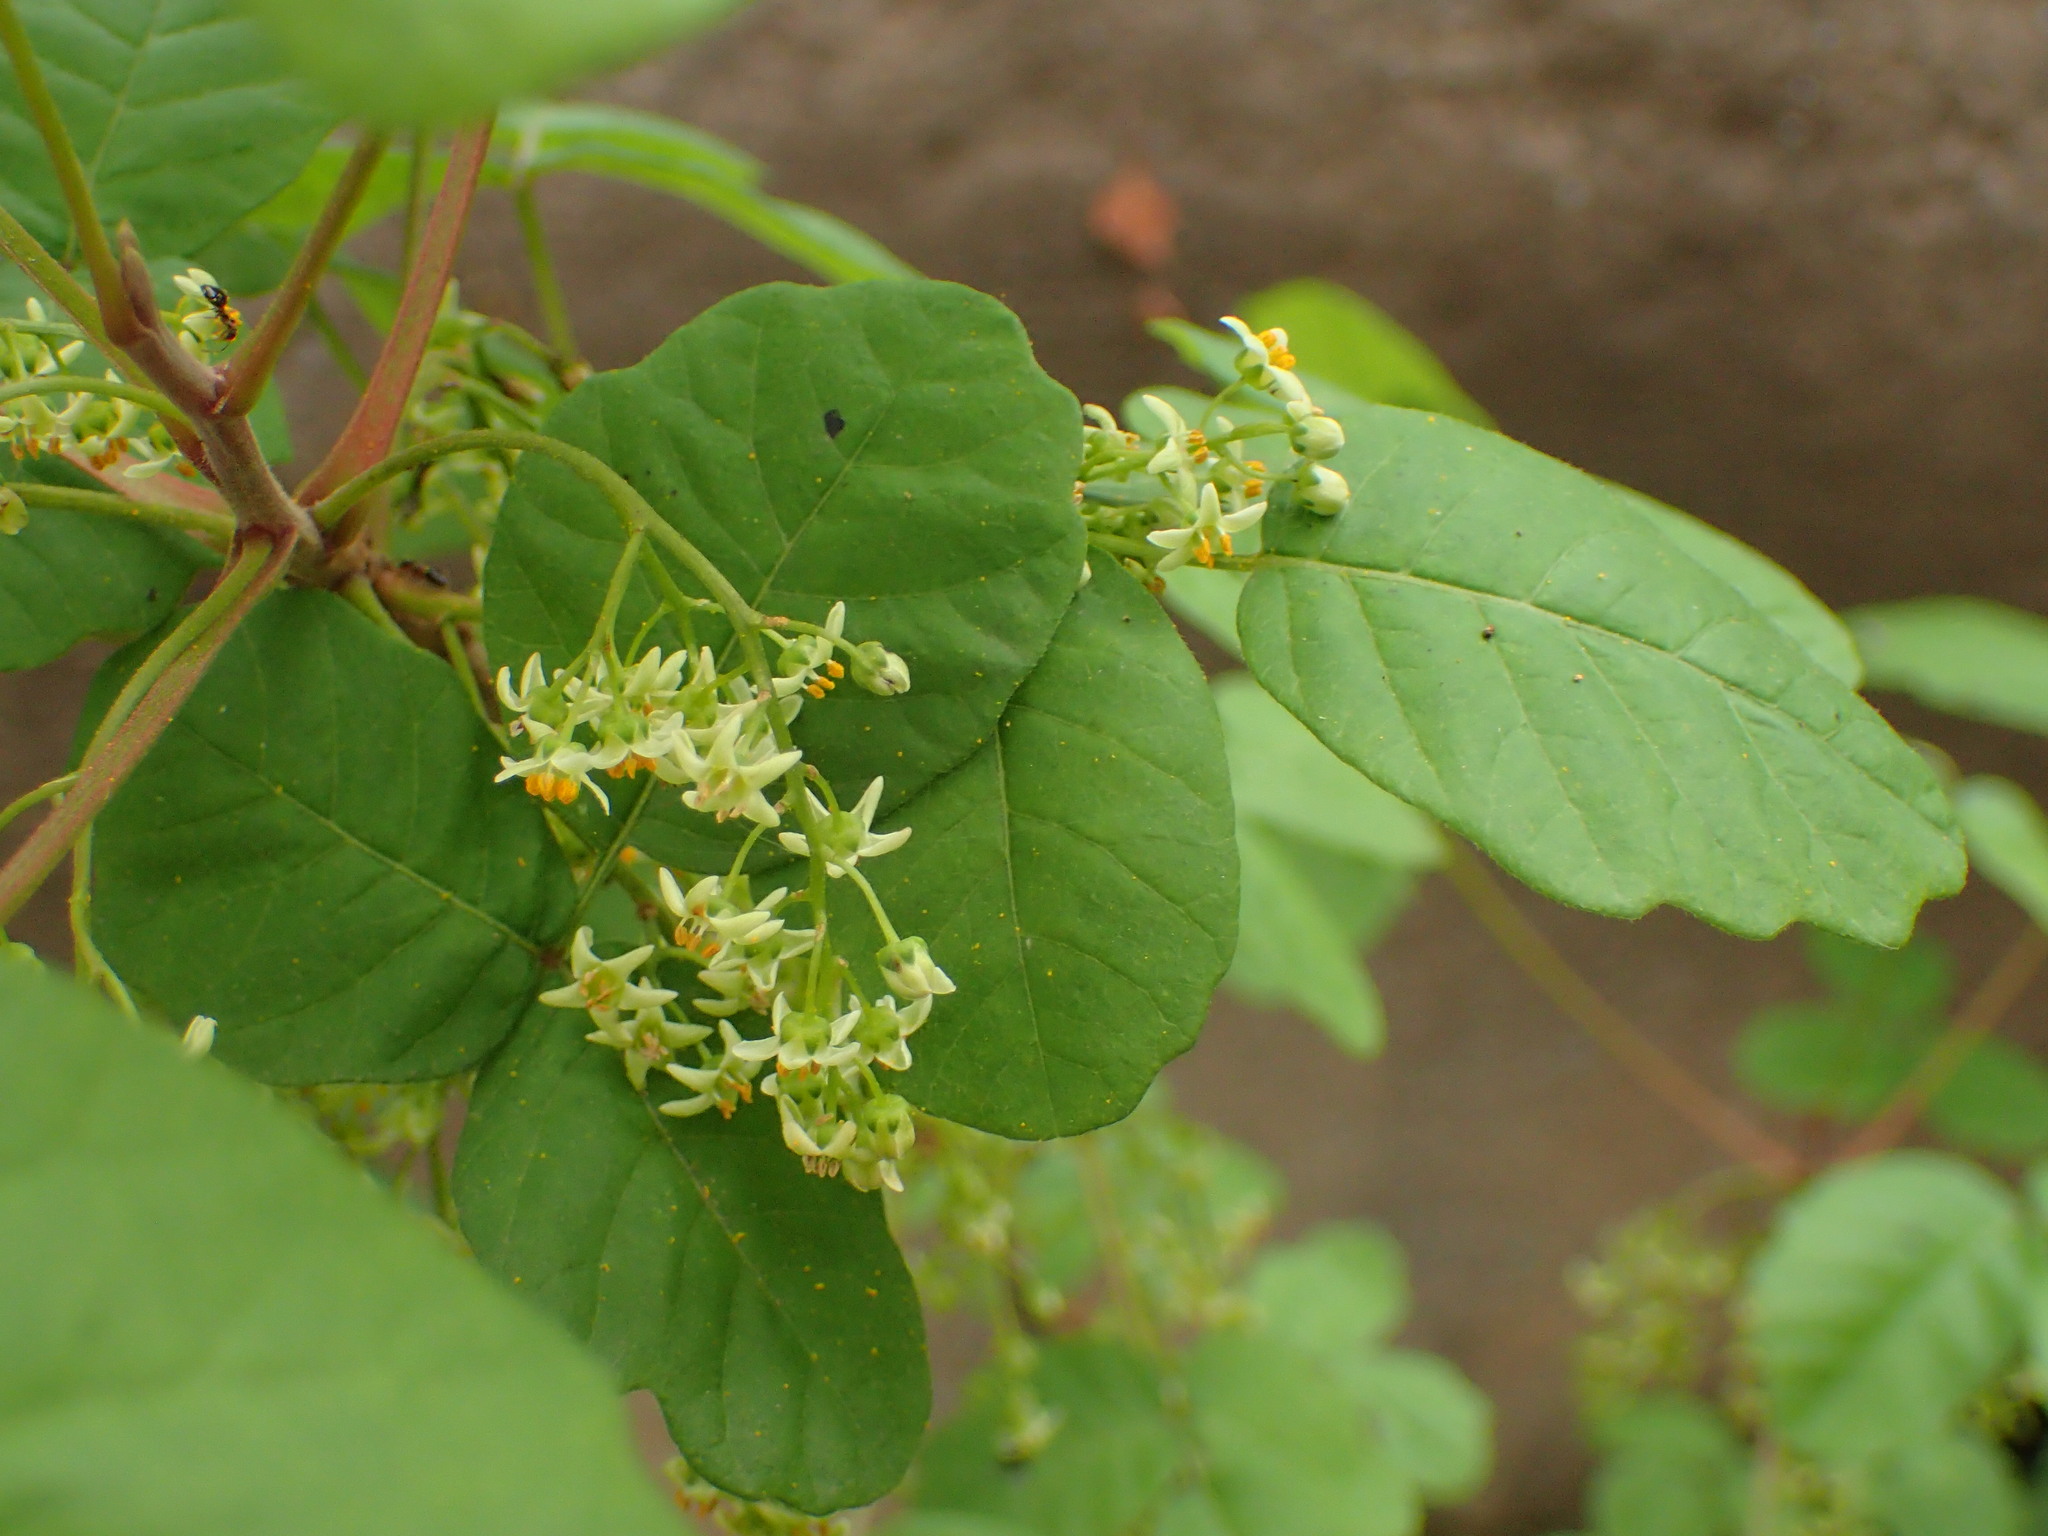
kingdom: Plantae
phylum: Tracheophyta
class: Magnoliopsida
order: Sapindales
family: Anacardiaceae
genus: Toxicodendron
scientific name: Toxicodendron diversilobum
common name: Pacific poison-oak
